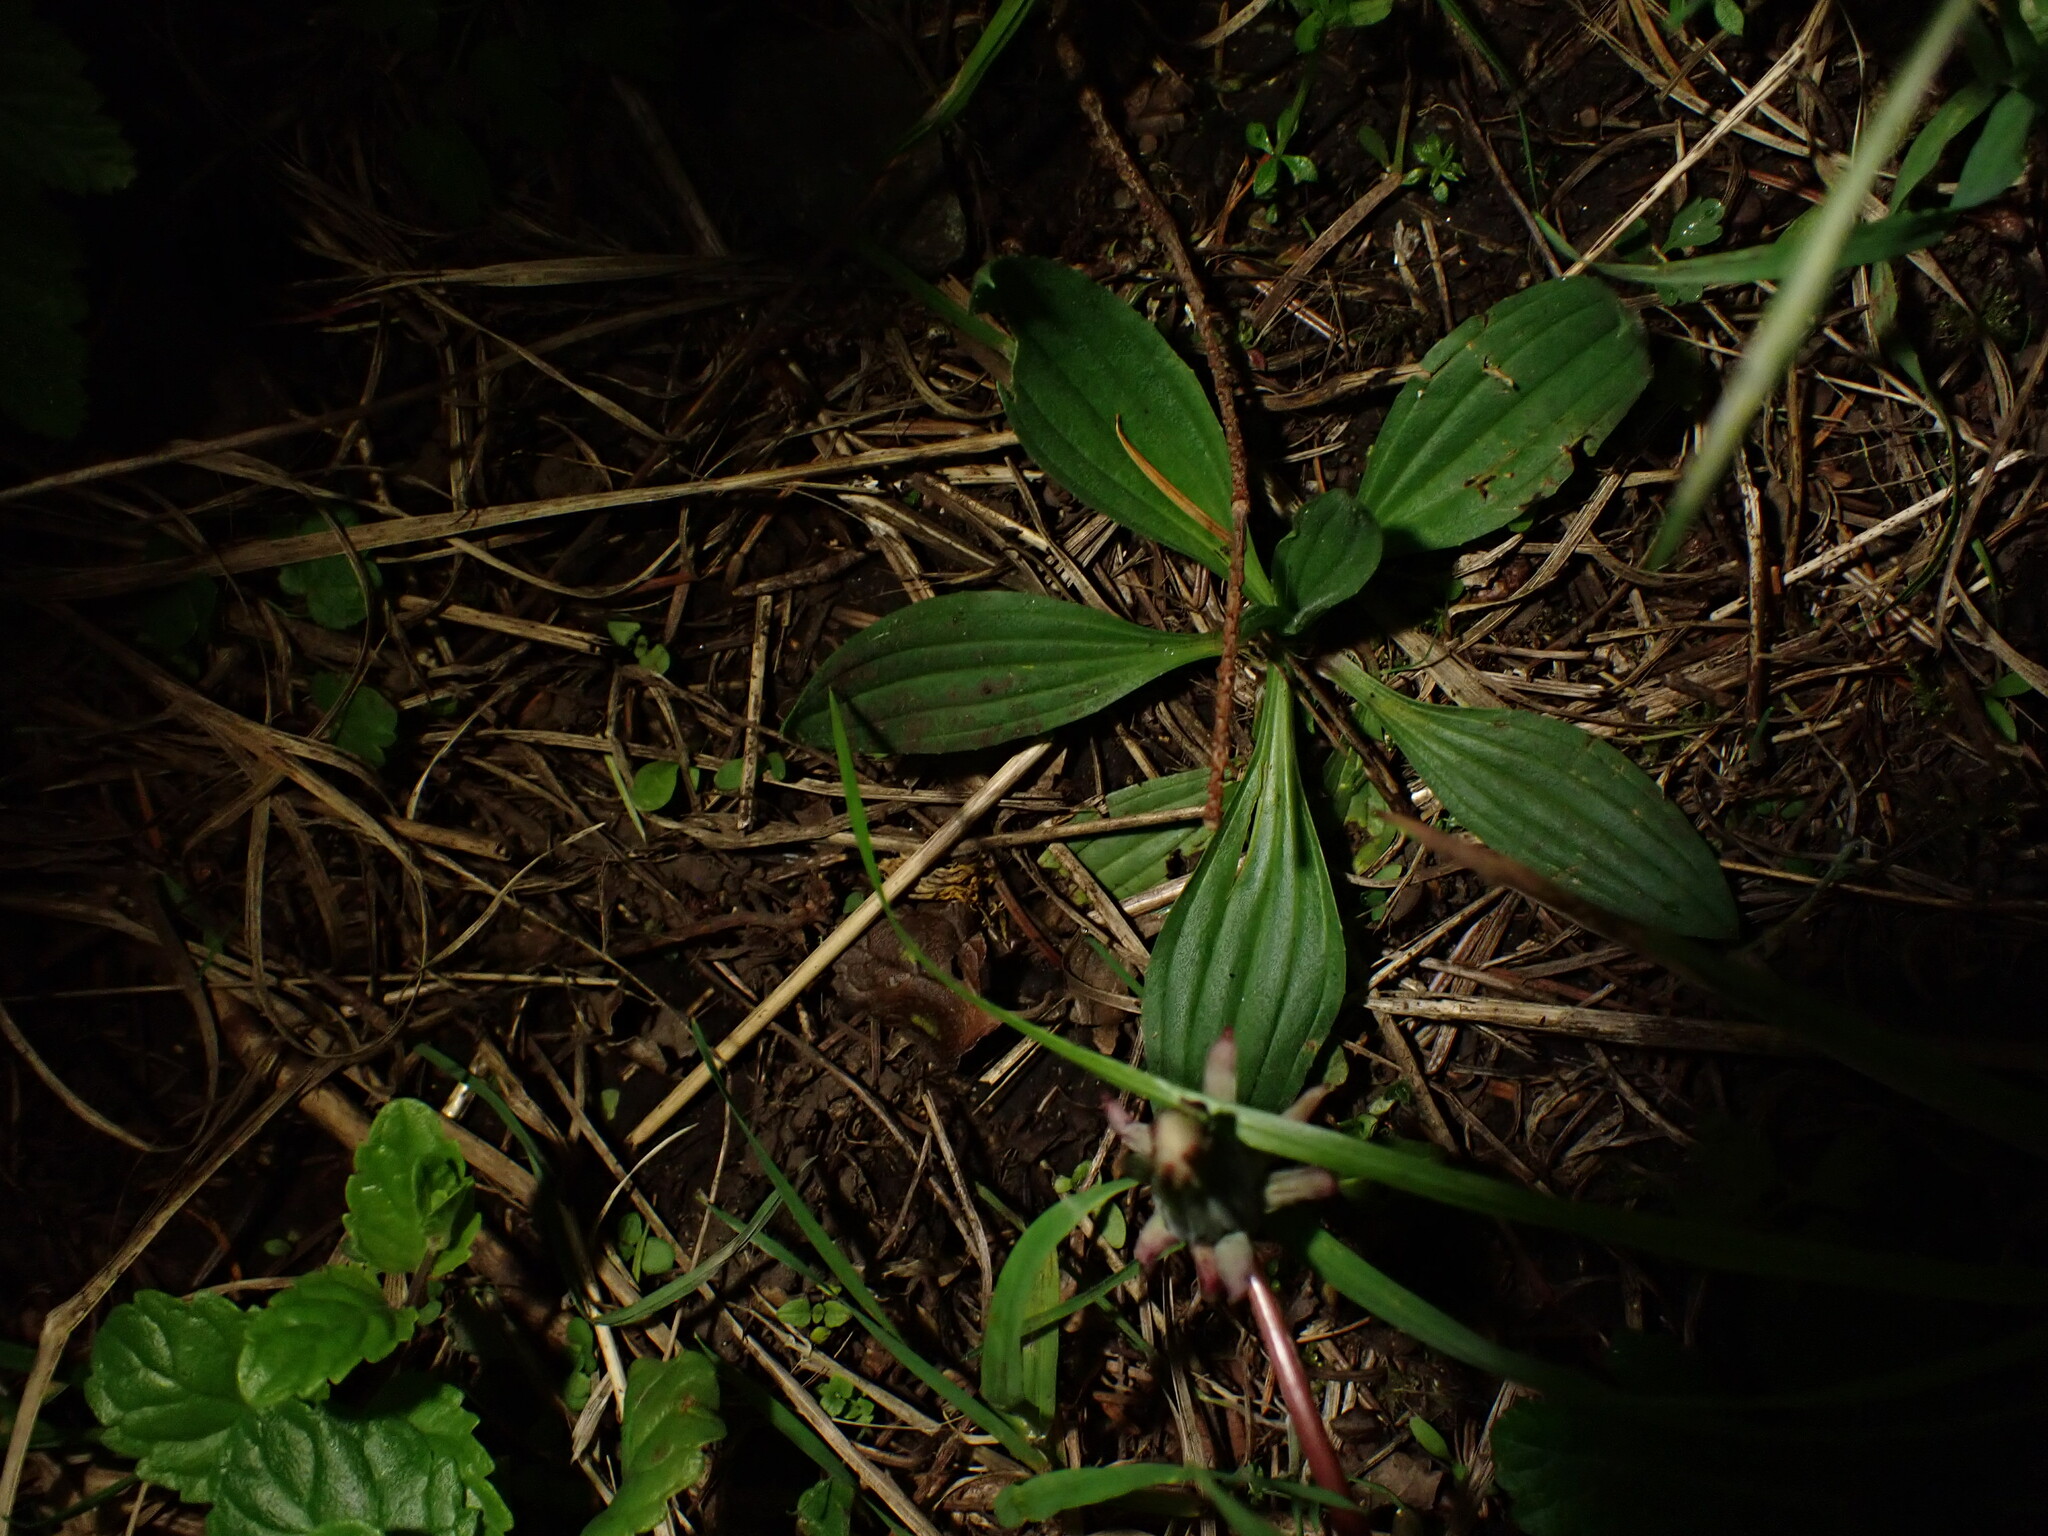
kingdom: Plantae
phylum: Tracheophyta
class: Magnoliopsida
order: Lamiales
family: Plantaginaceae
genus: Plantago
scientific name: Plantago major
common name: Common plantain
